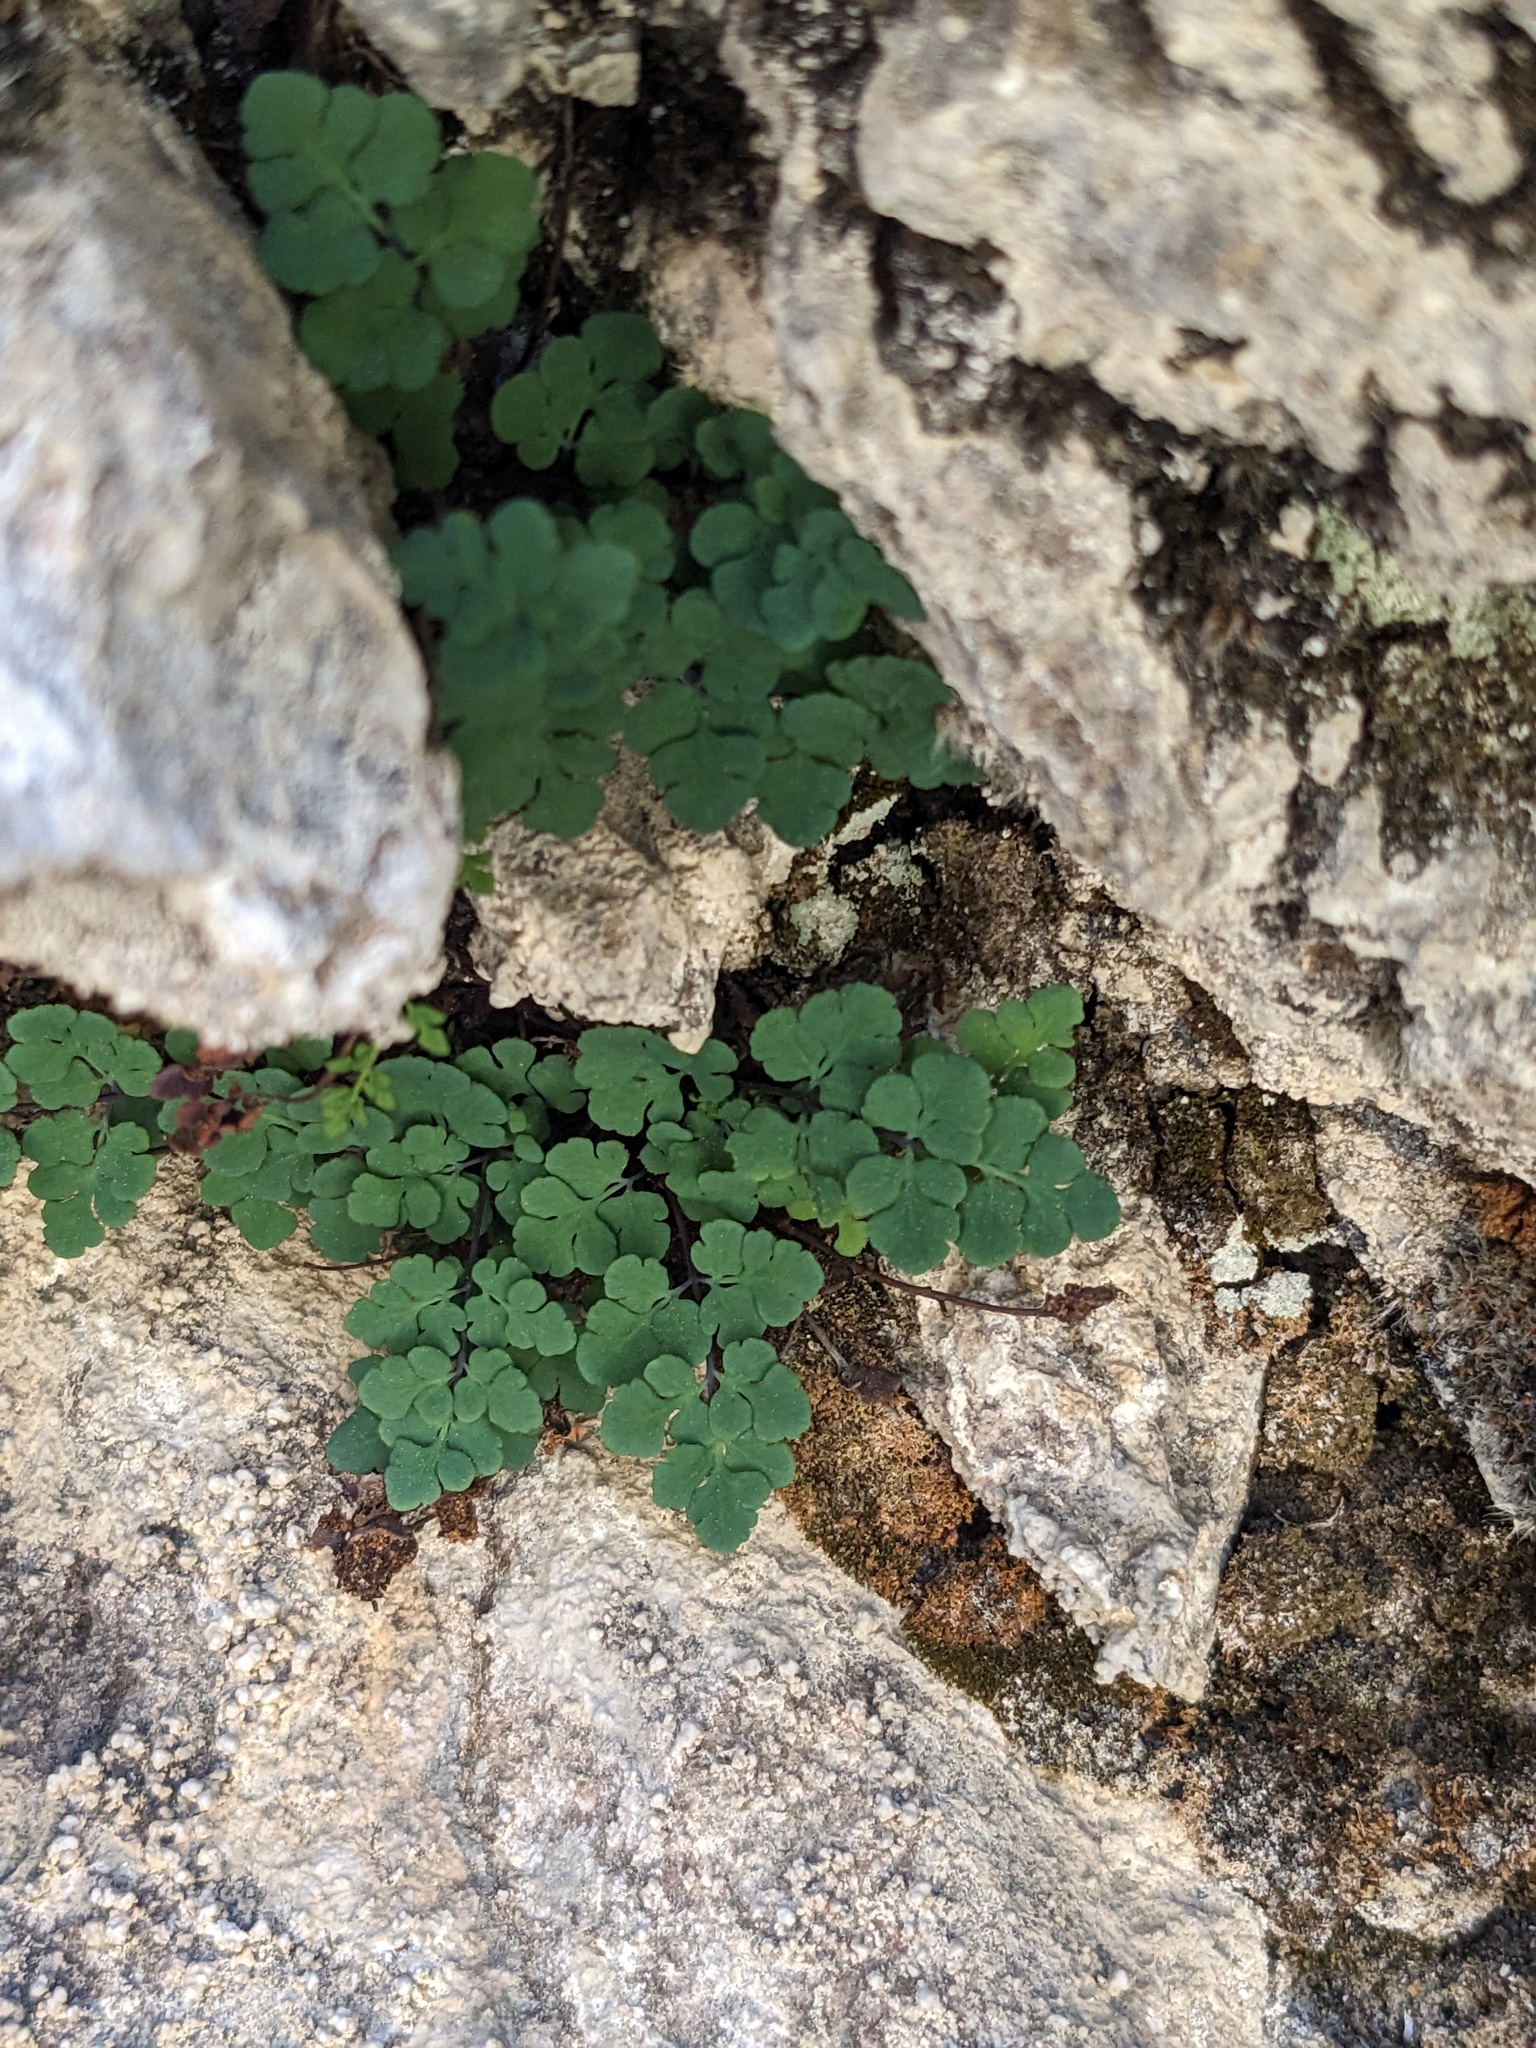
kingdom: Plantae
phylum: Tracheophyta
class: Polypodiopsida
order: Polypodiales
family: Pteridaceae
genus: Argyrochosma
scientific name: Argyrochosma jonesii
